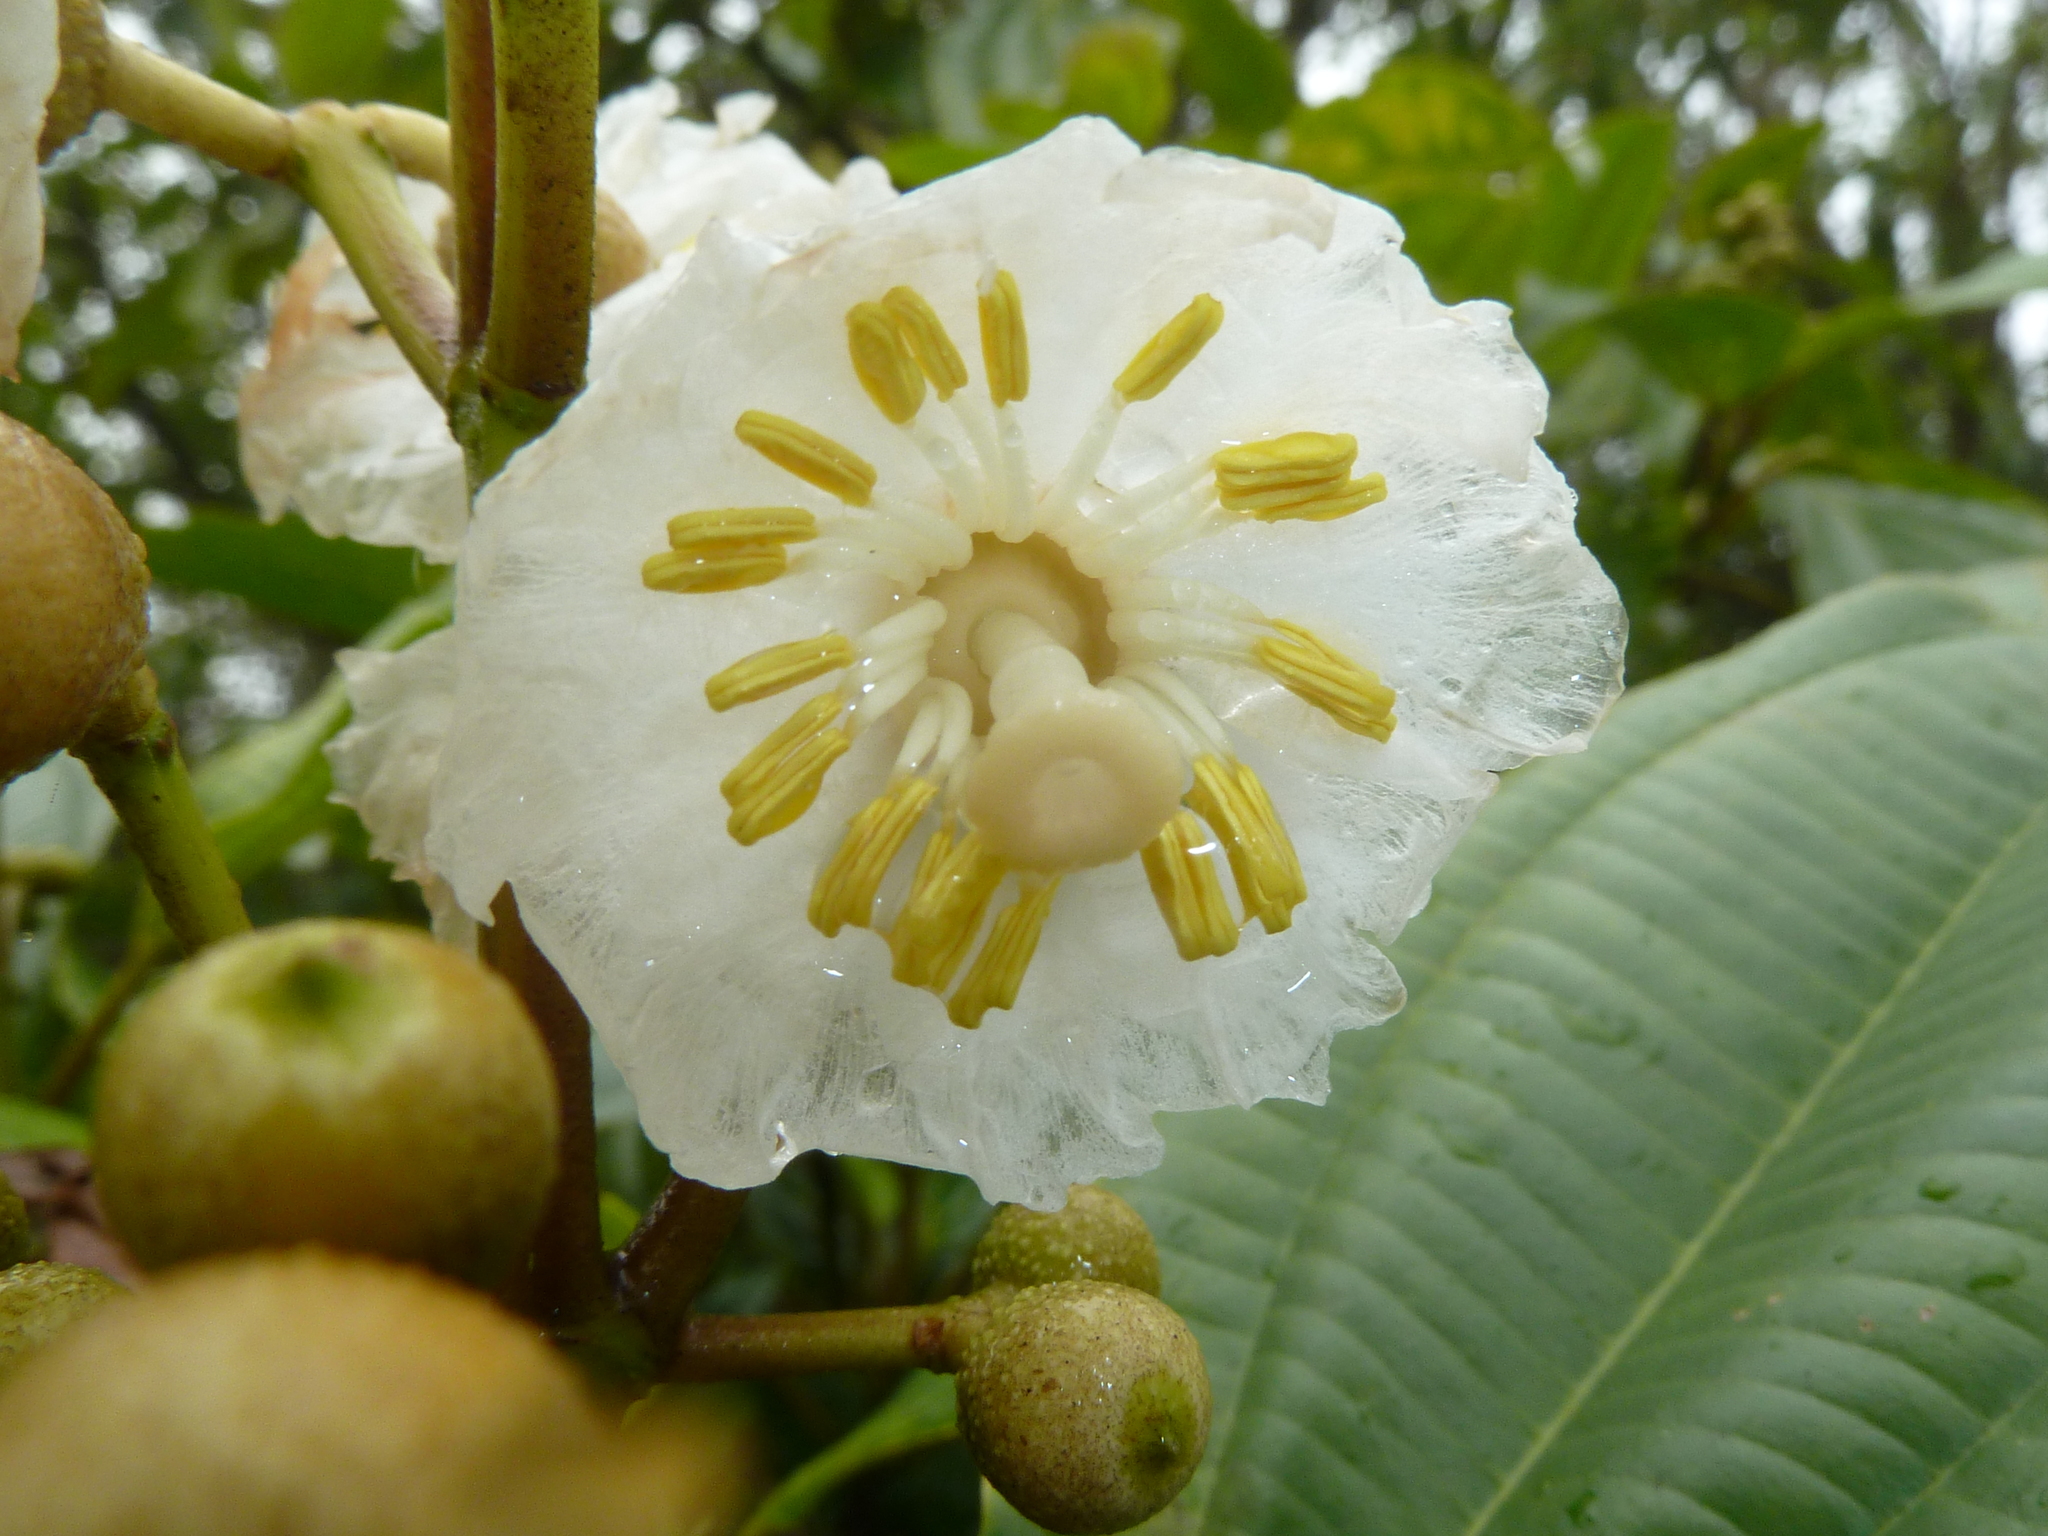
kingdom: Plantae
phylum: Tracheophyta
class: Magnoliopsida
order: Myrtales
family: Melastomataceae
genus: Miconia
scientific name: Miconia oerstediana
